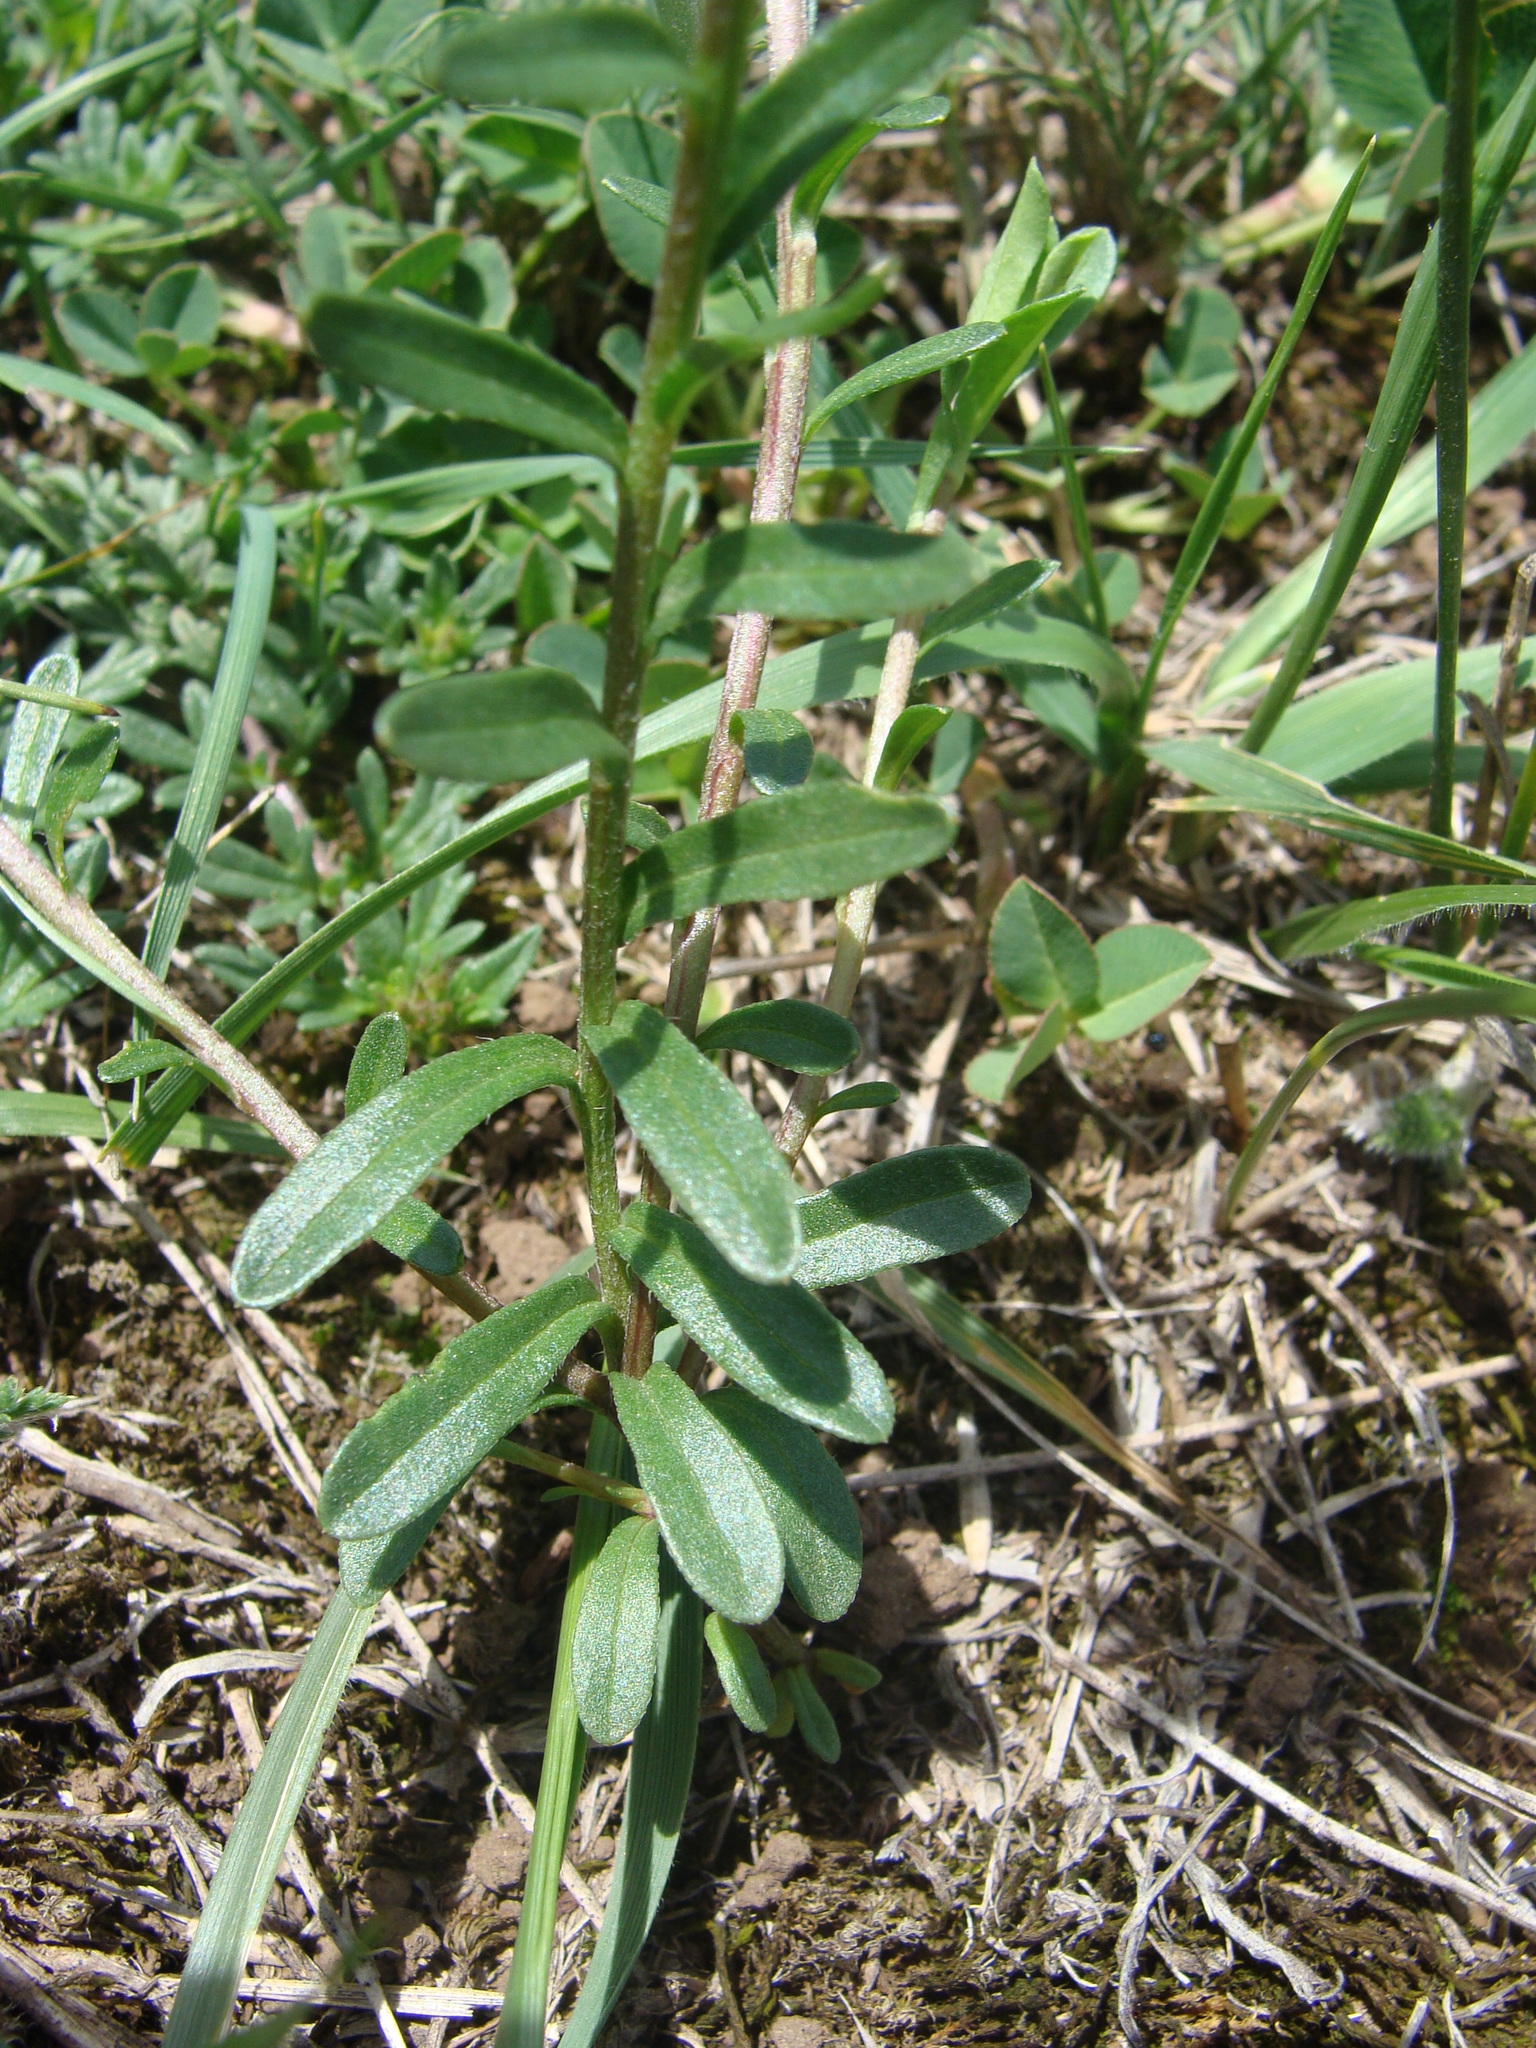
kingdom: Plantae
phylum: Tracheophyta
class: Magnoliopsida
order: Asterales
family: Asteraceae
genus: Astranthium
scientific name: Astranthium orthopodum
